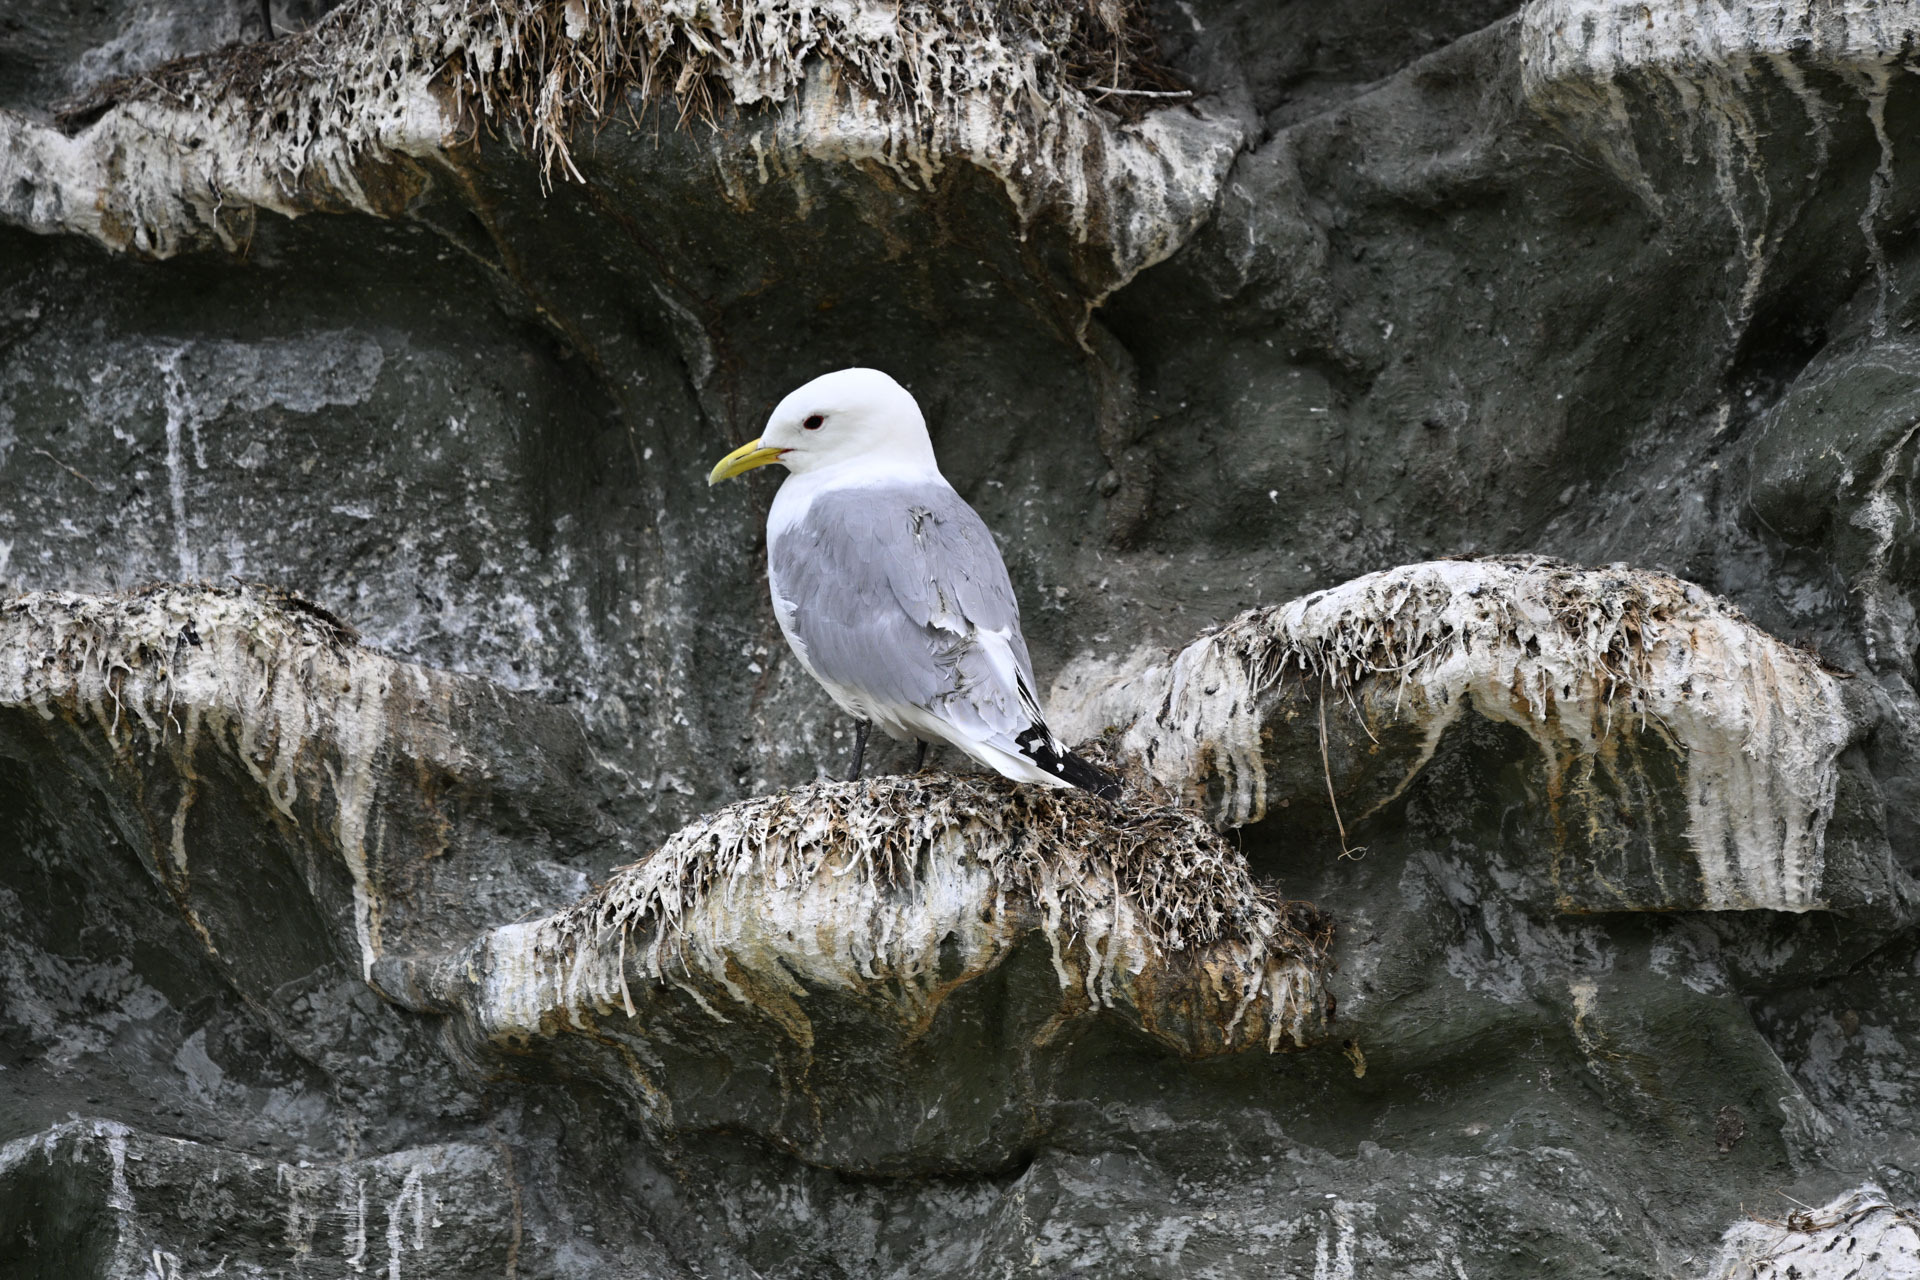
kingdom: Animalia
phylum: Chordata
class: Aves
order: Charadriiformes
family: Laridae
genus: Rissa
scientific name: Rissa tridactyla
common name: Black-legged kittiwake
